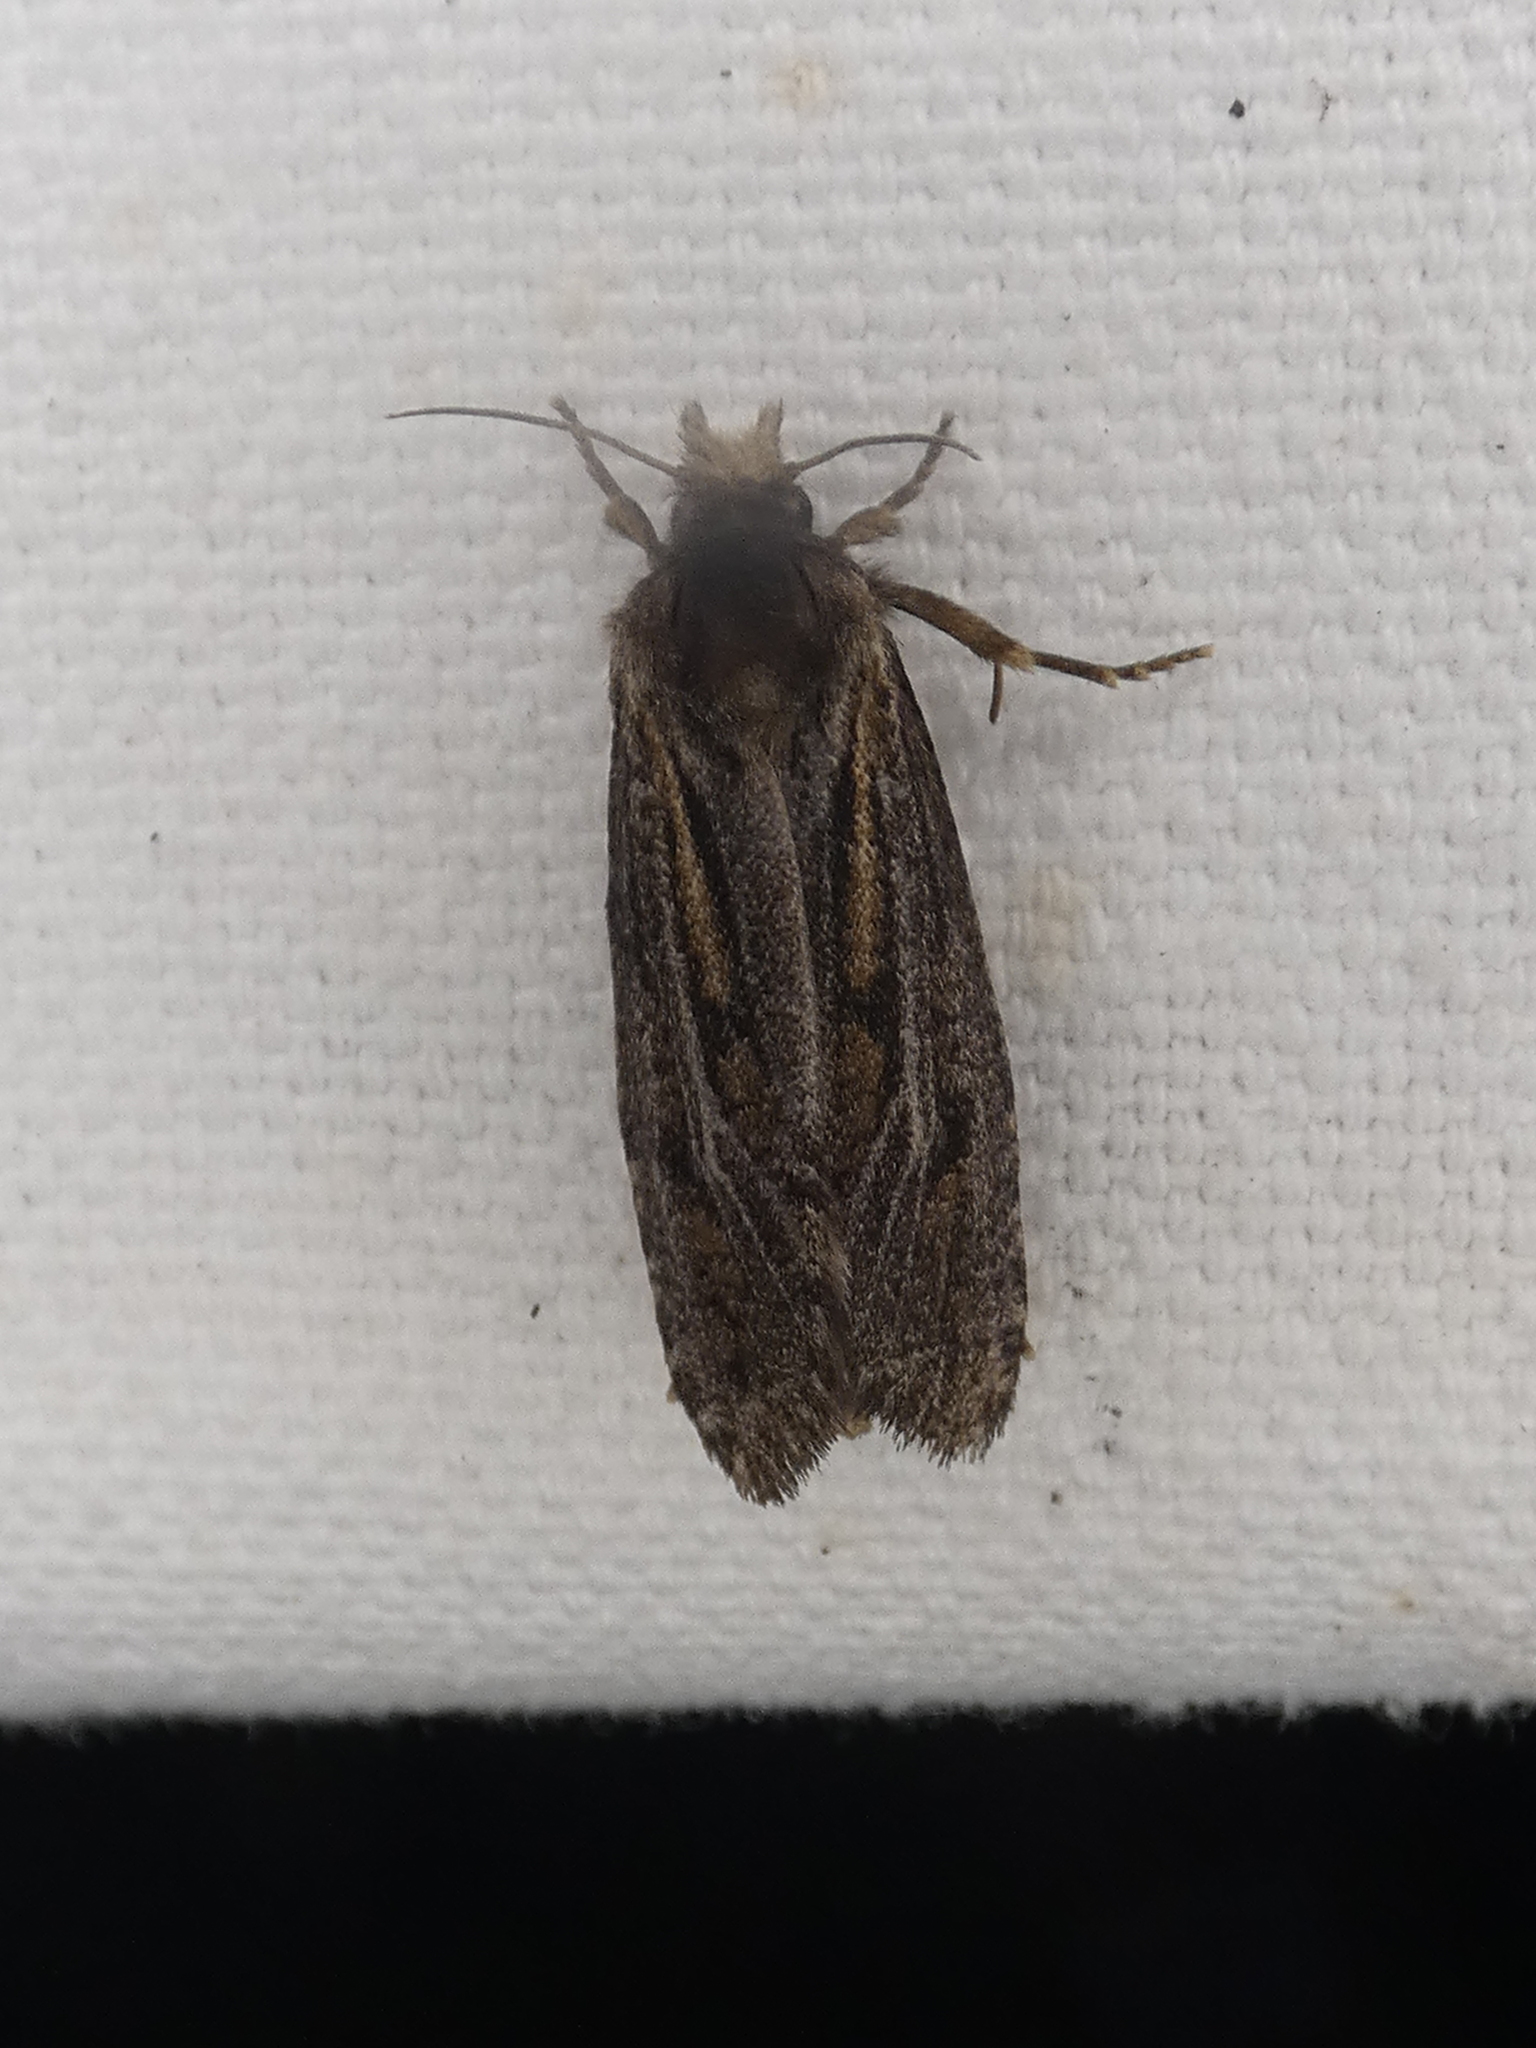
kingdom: Animalia
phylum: Arthropoda
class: Insecta
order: Lepidoptera
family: Tineidae
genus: Acrolophus
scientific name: Acrolophus popeanella
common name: Clemens' grass tubeworm moth
